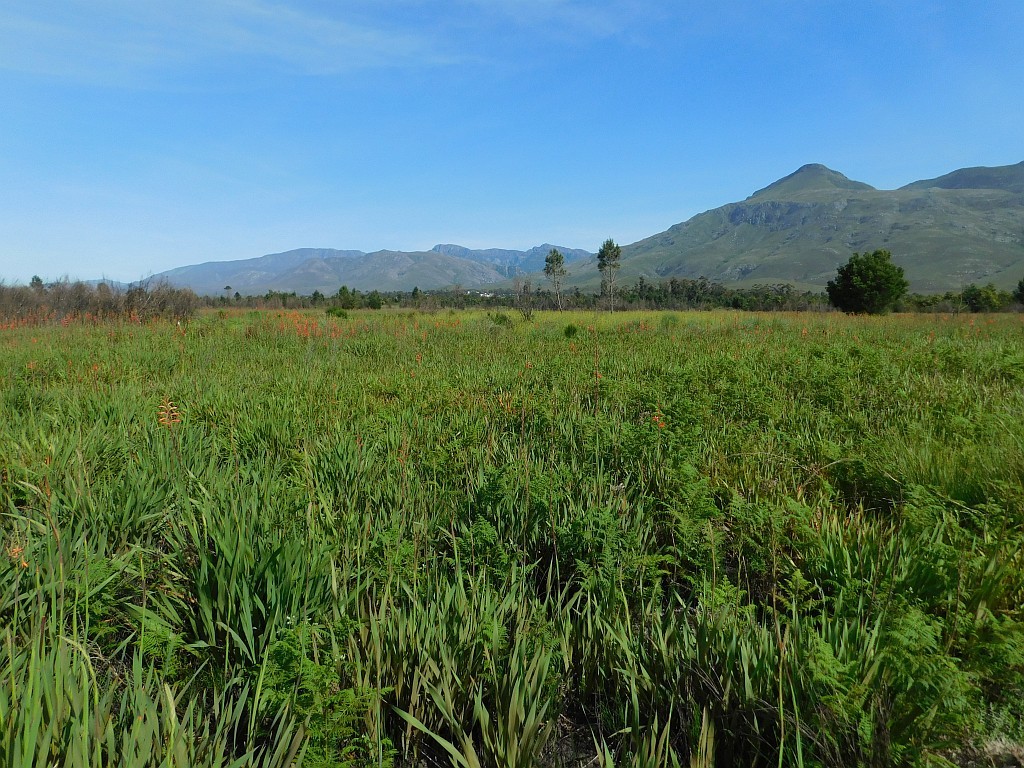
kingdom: Plantae
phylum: Tracheophyta
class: Liliopsida
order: Asparagales
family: Iridaceae
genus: Moraea
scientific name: Moraea ramosissima
